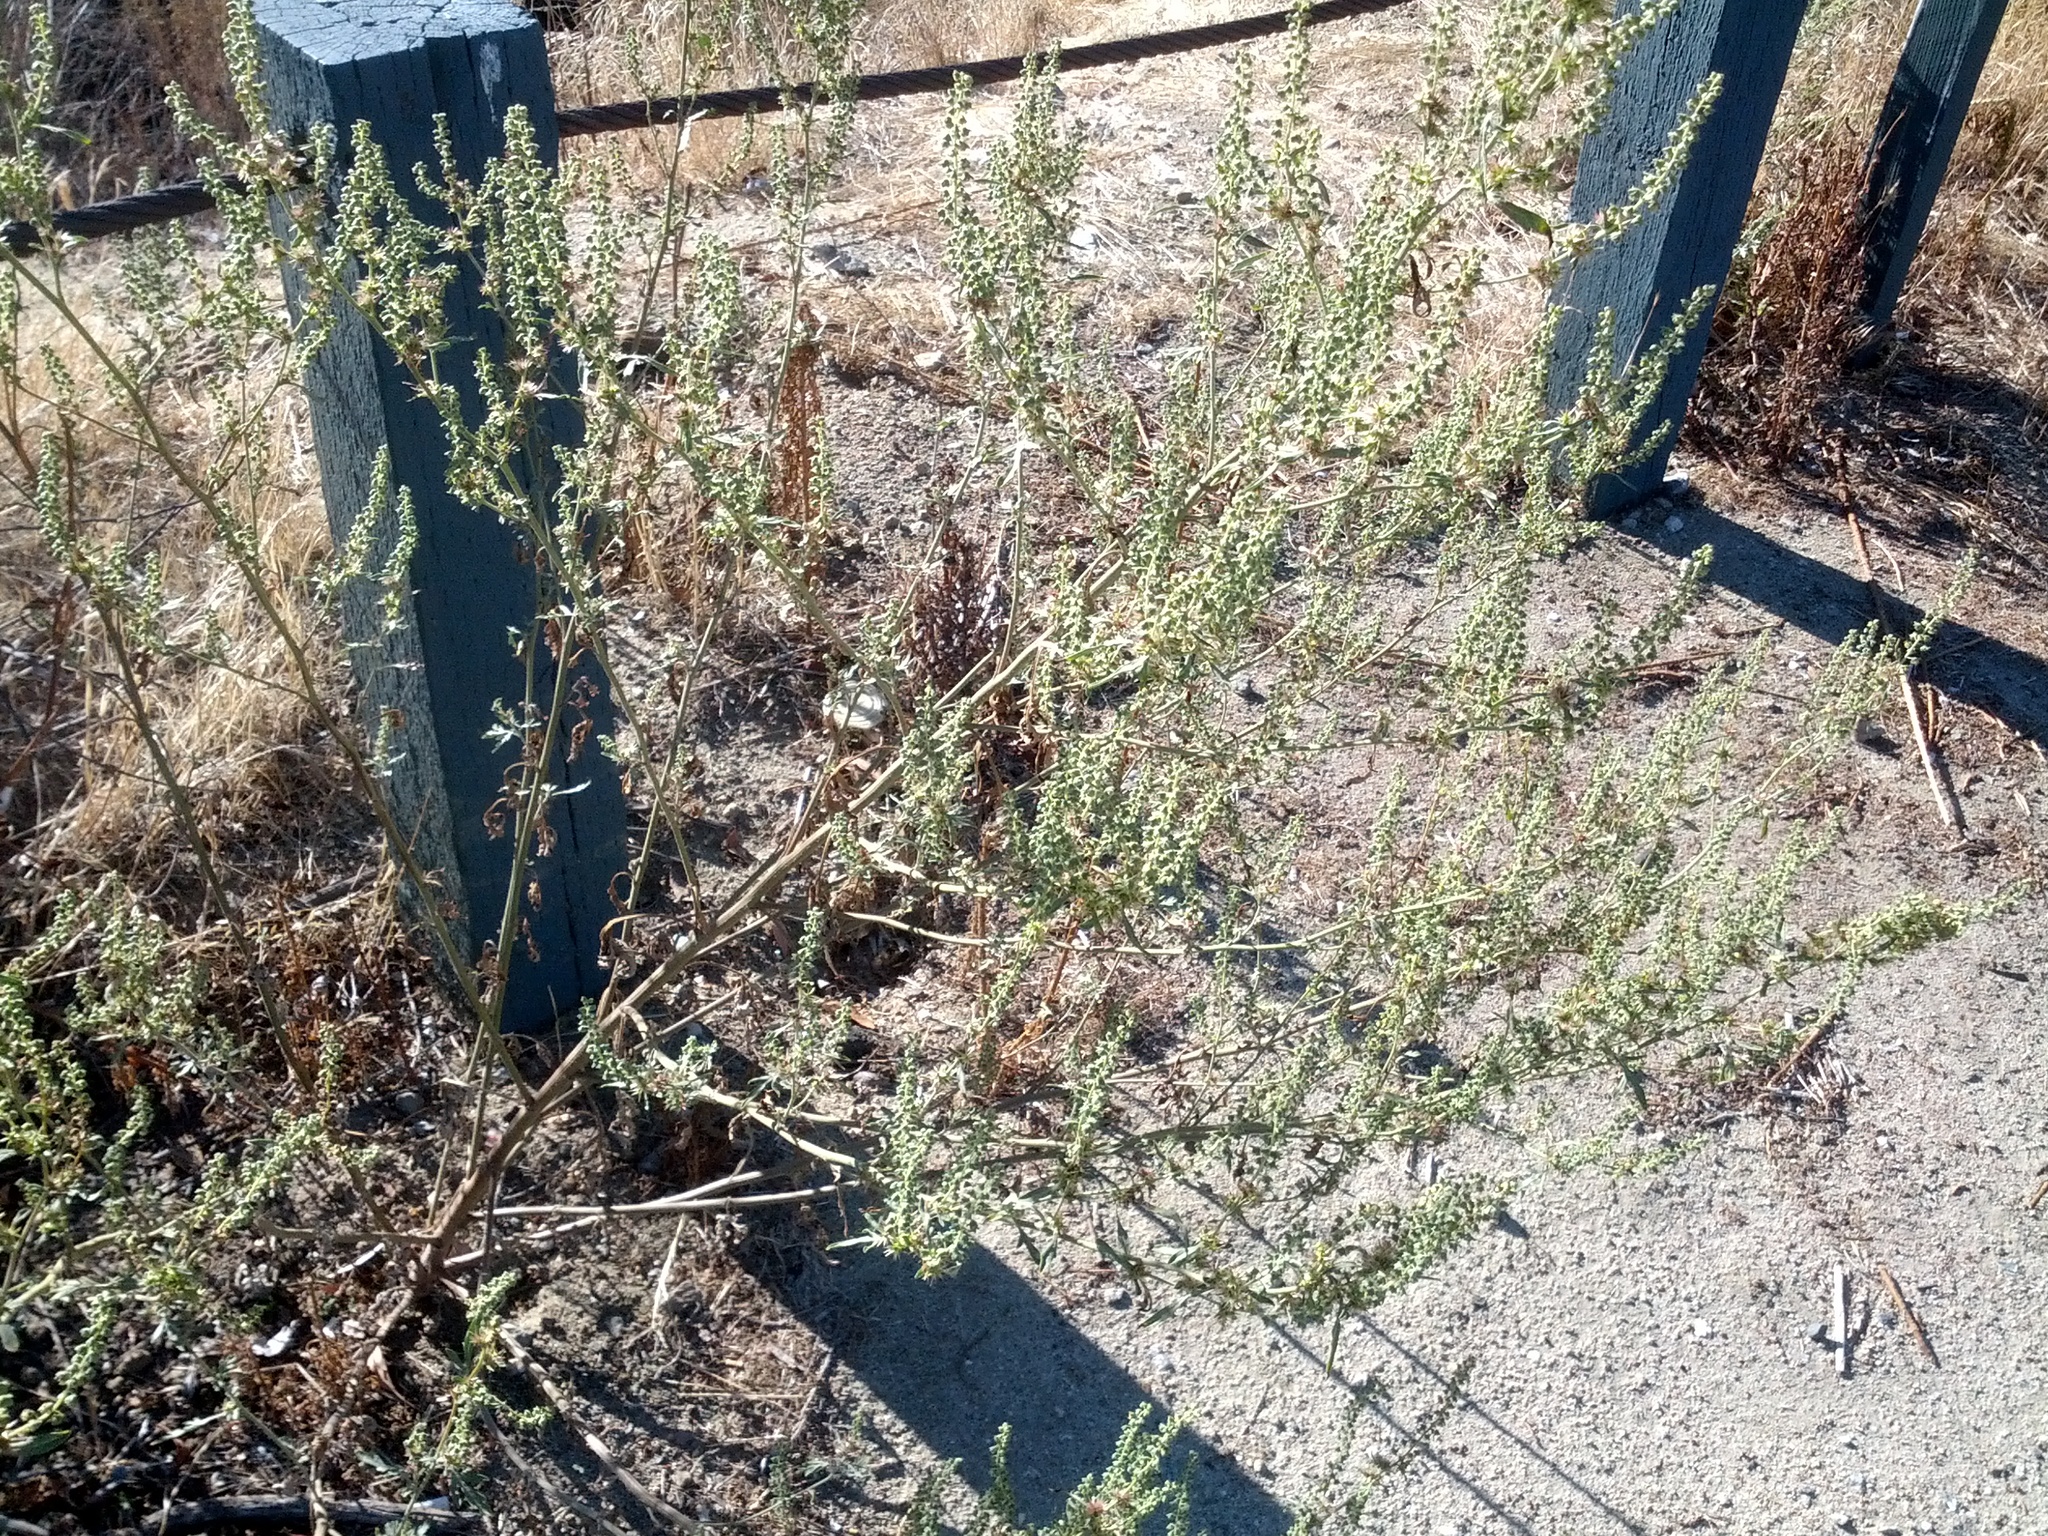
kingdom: Plantae
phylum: Tracheophyta
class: Magnoliopsida
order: Asterales
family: Asteraceae
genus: Ambrosia
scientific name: Ambrosia acanthicarpa
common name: Hooker's bur ragweed
